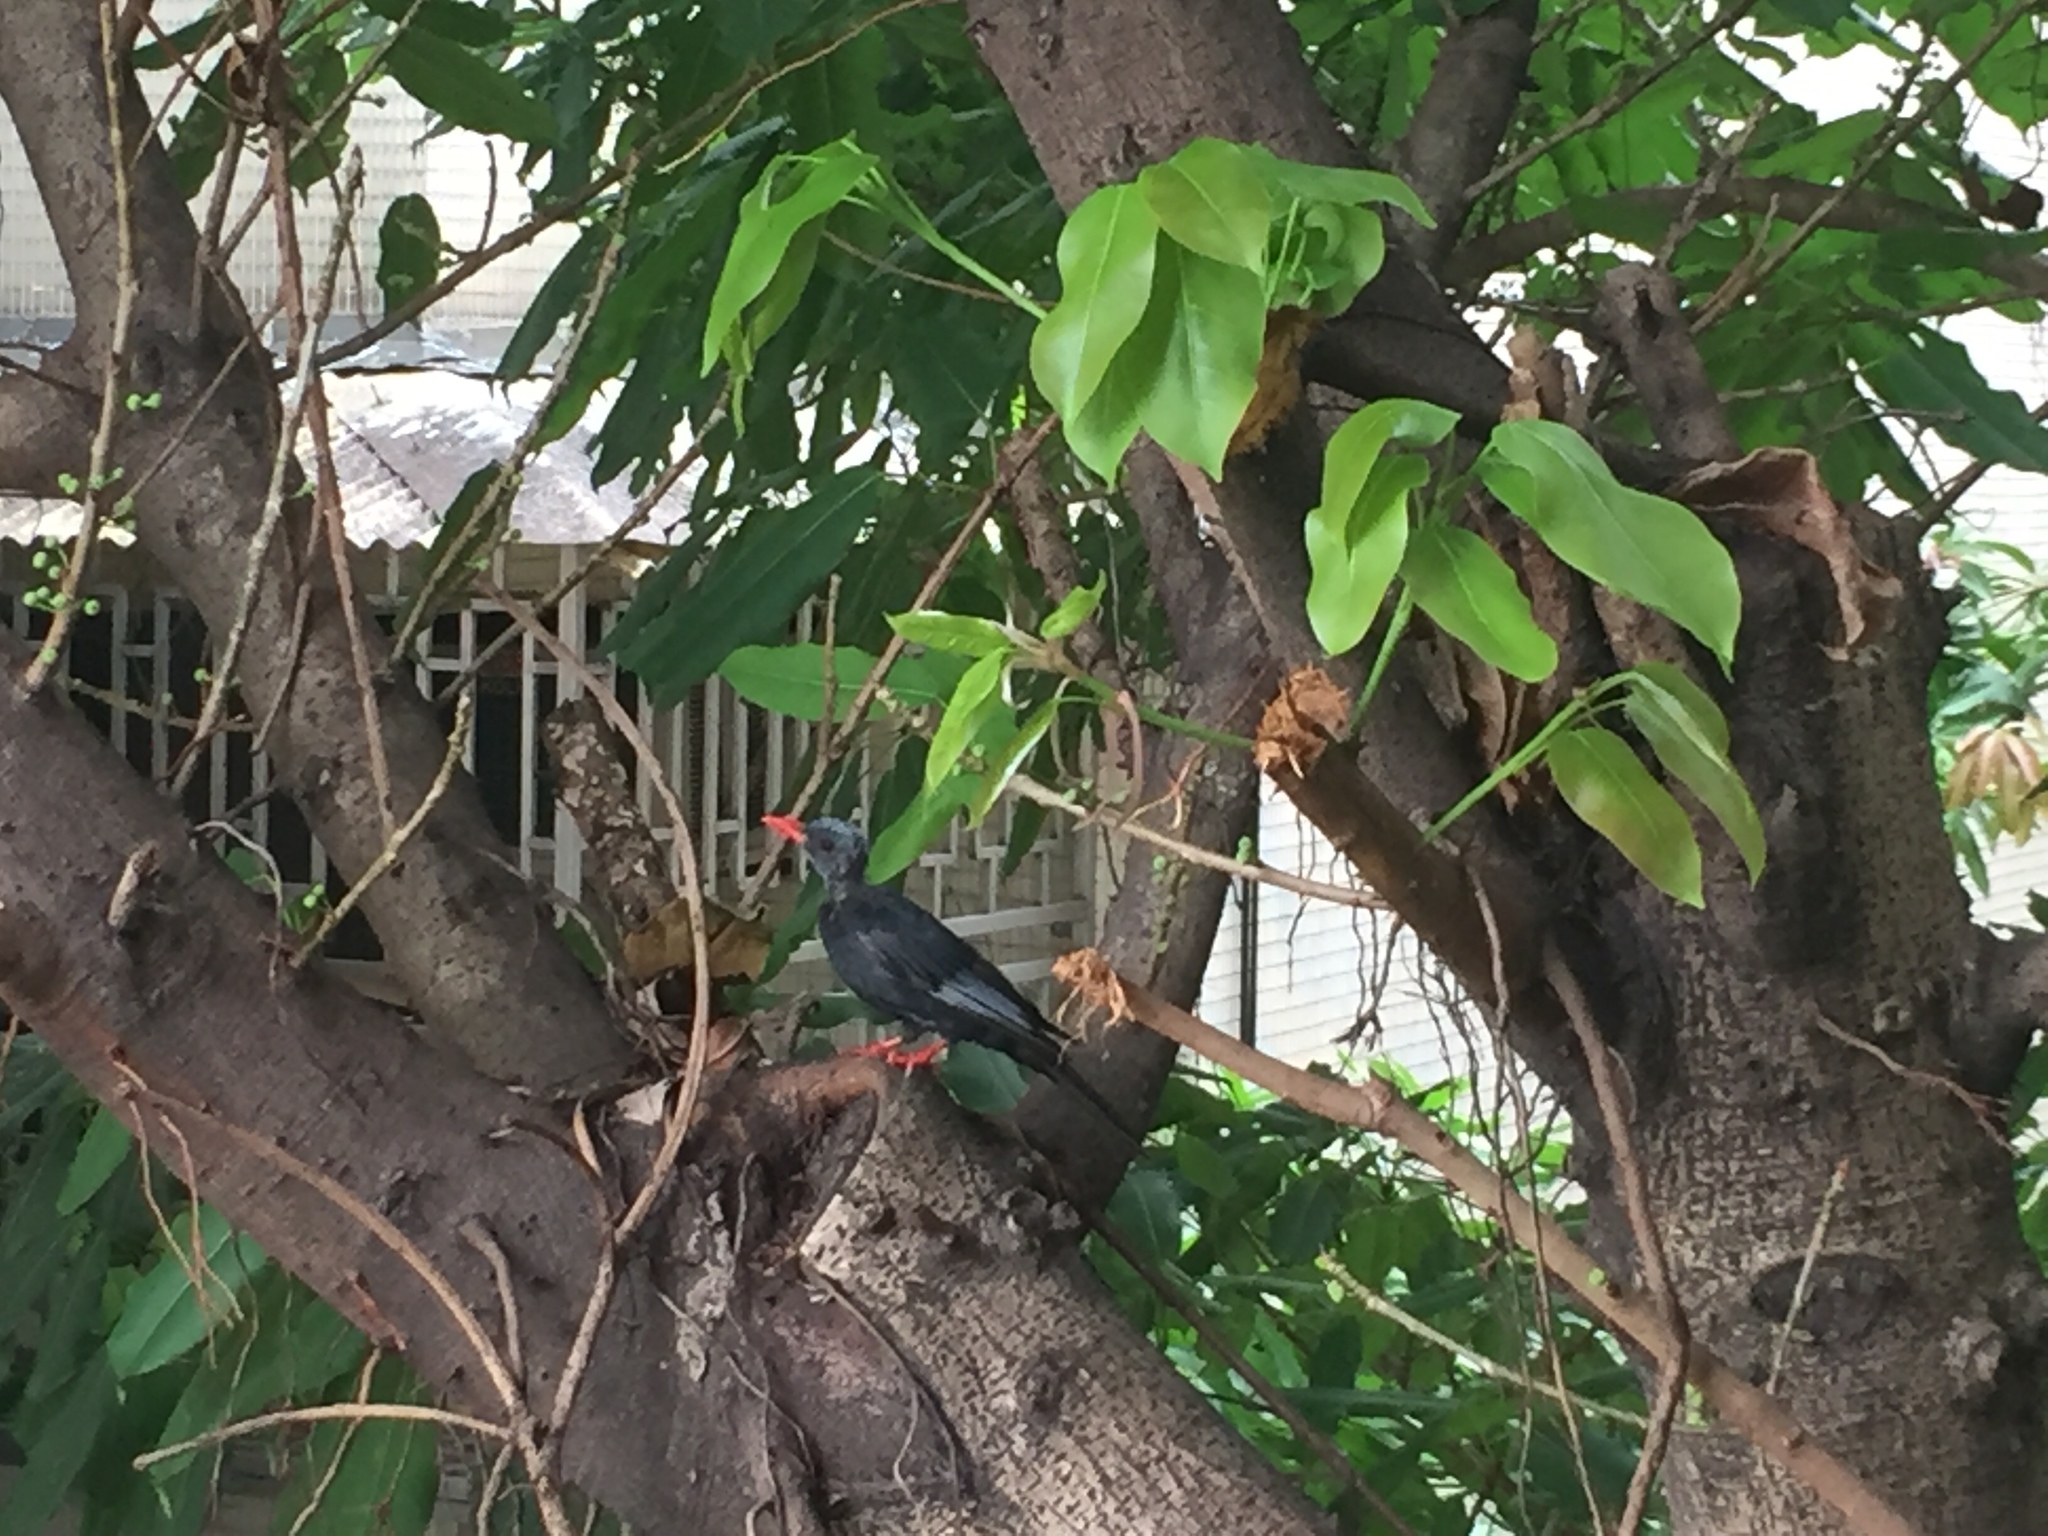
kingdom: Animalia
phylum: Chordata
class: Aves
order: Passeriformes
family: Pycnonotidae
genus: Hypsipetes
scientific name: Hypsipetes leucocephalus
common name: Black bulbul
